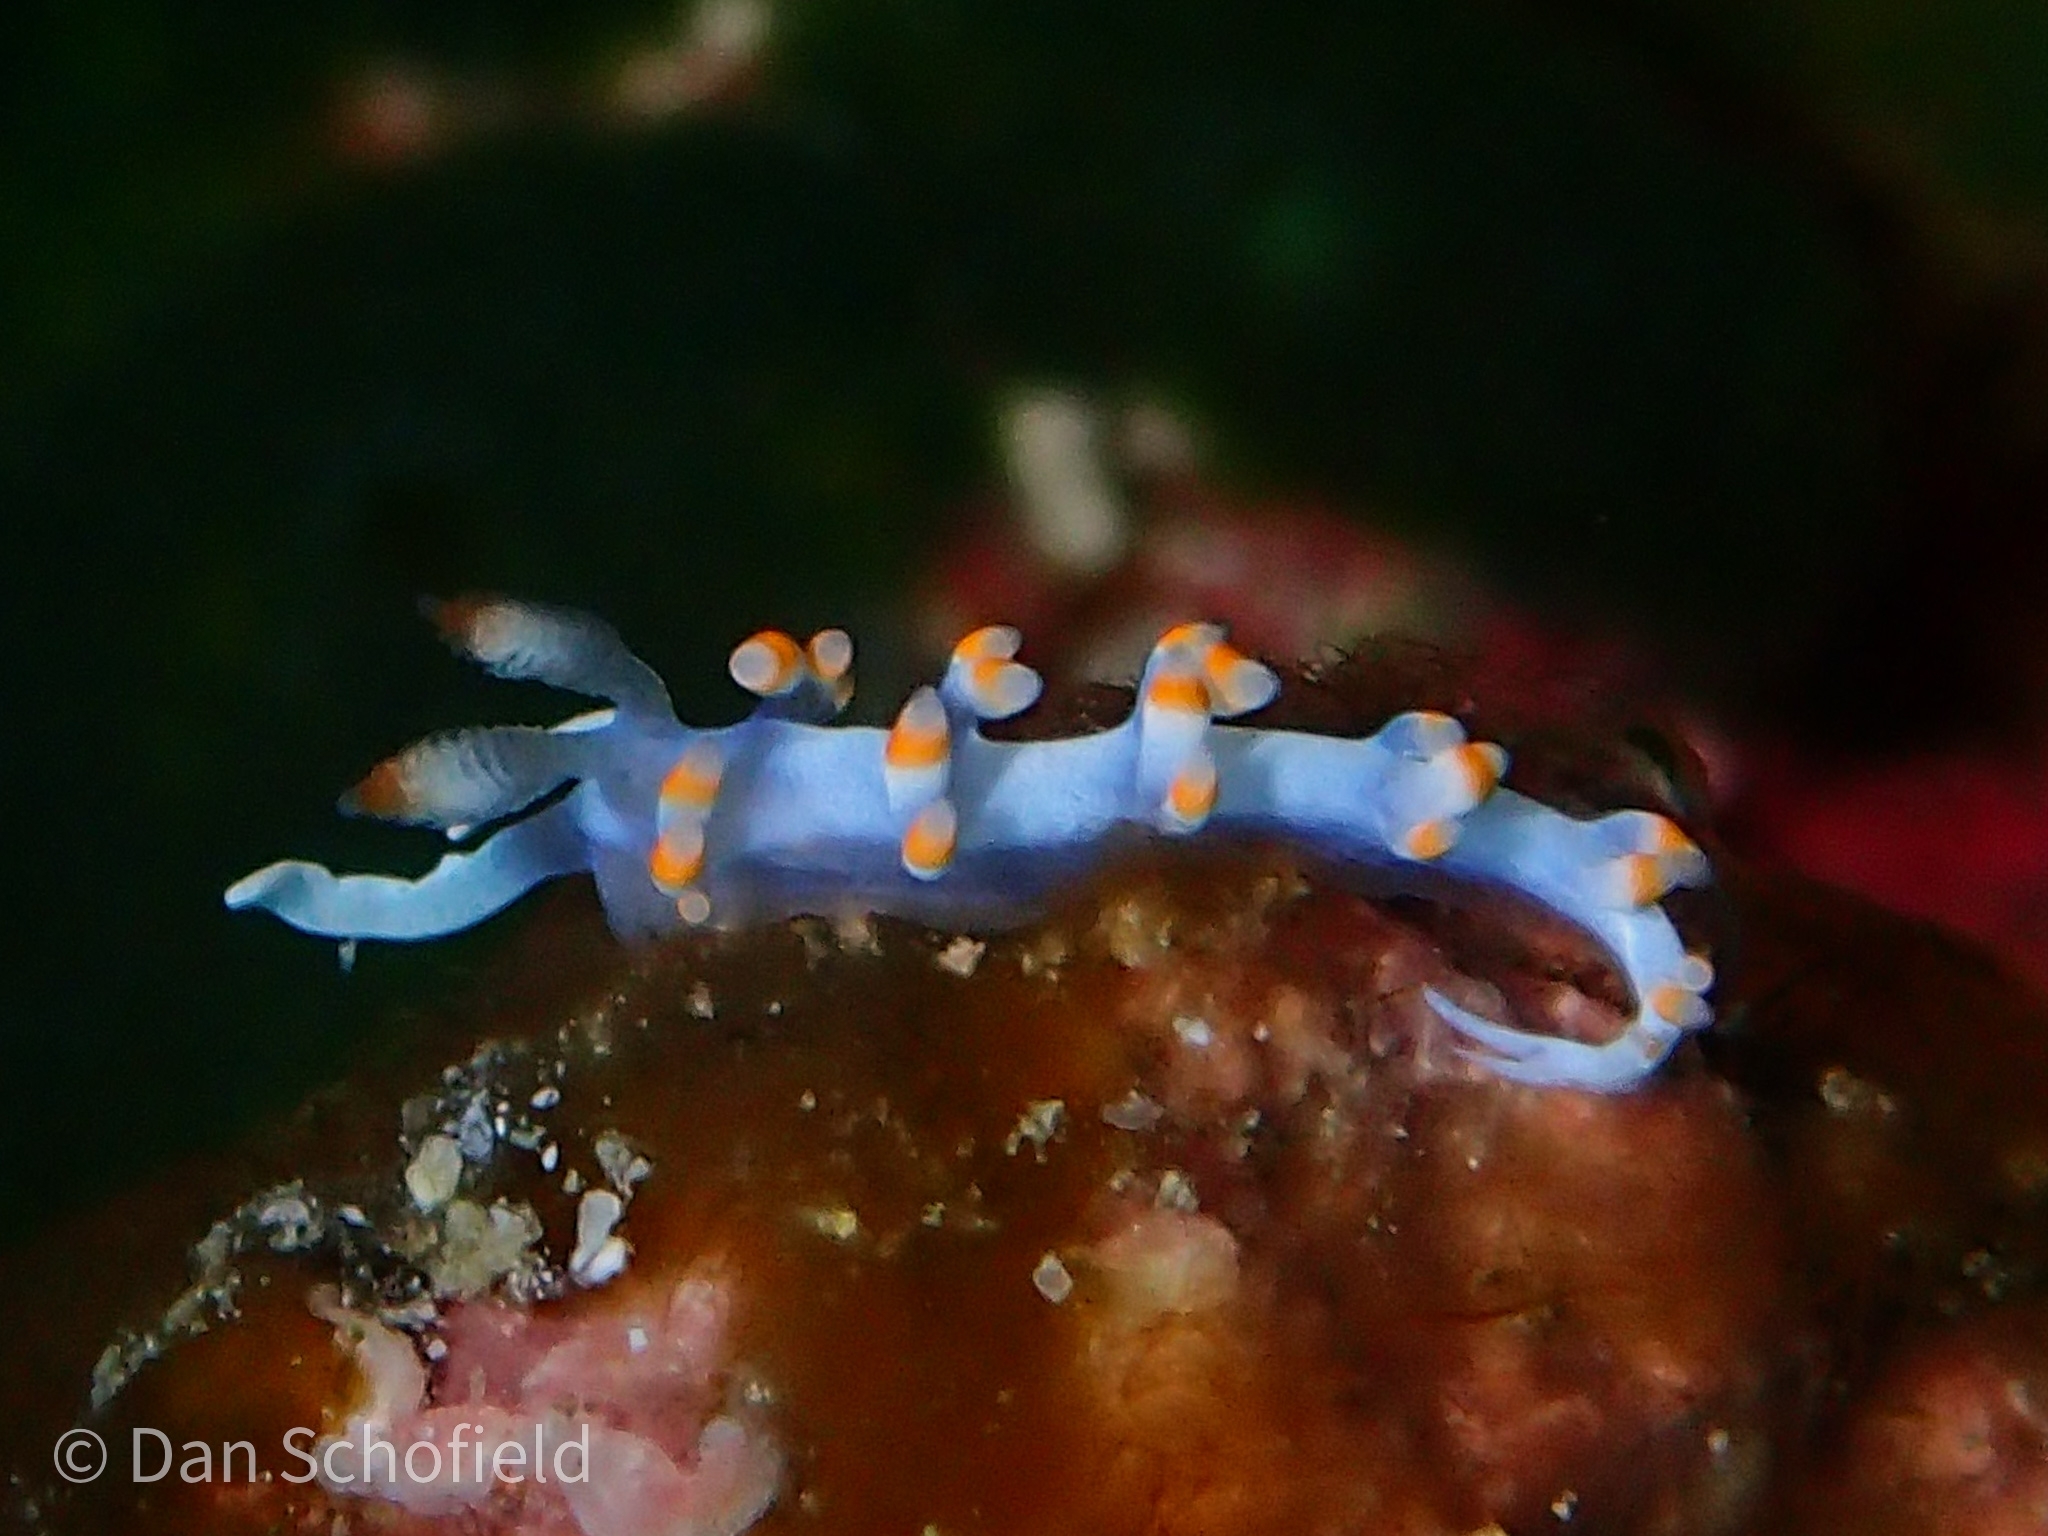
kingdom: Animalia
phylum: Mollusca
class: Gastropoda
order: Nudibranchia
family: Samlidae
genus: Samla
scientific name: Samla bicolor
